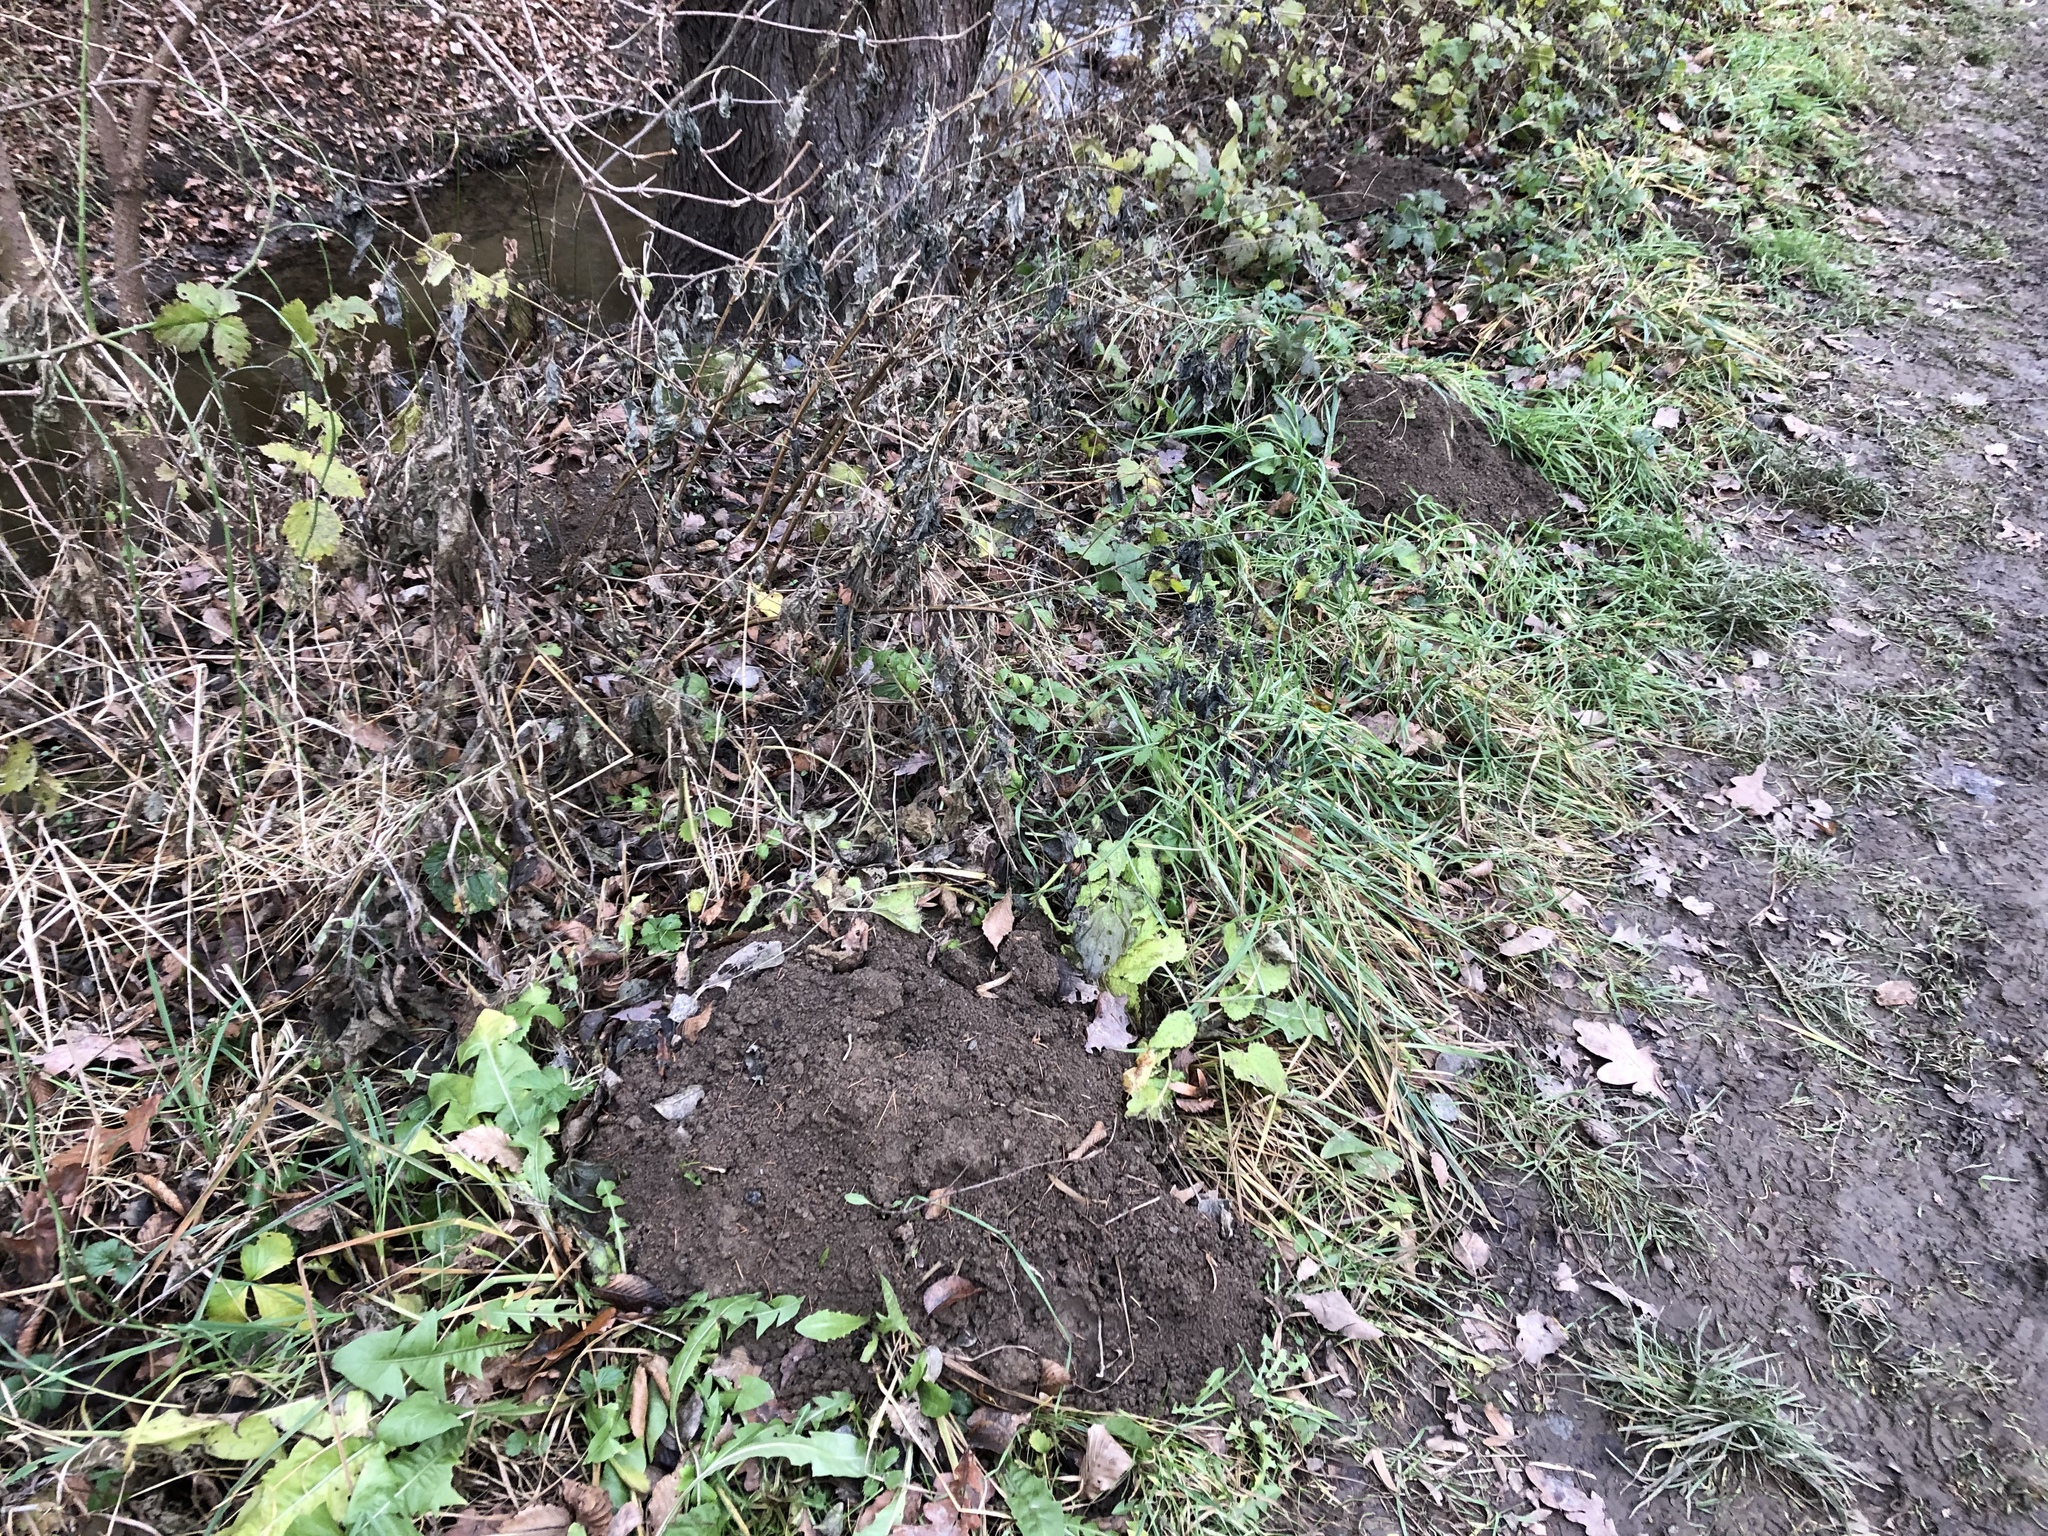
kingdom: Animalia
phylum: Chordata
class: Mammalia
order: Soricomorpha
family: Talpidae
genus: Talpa
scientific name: Talpa europaea
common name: European mole
